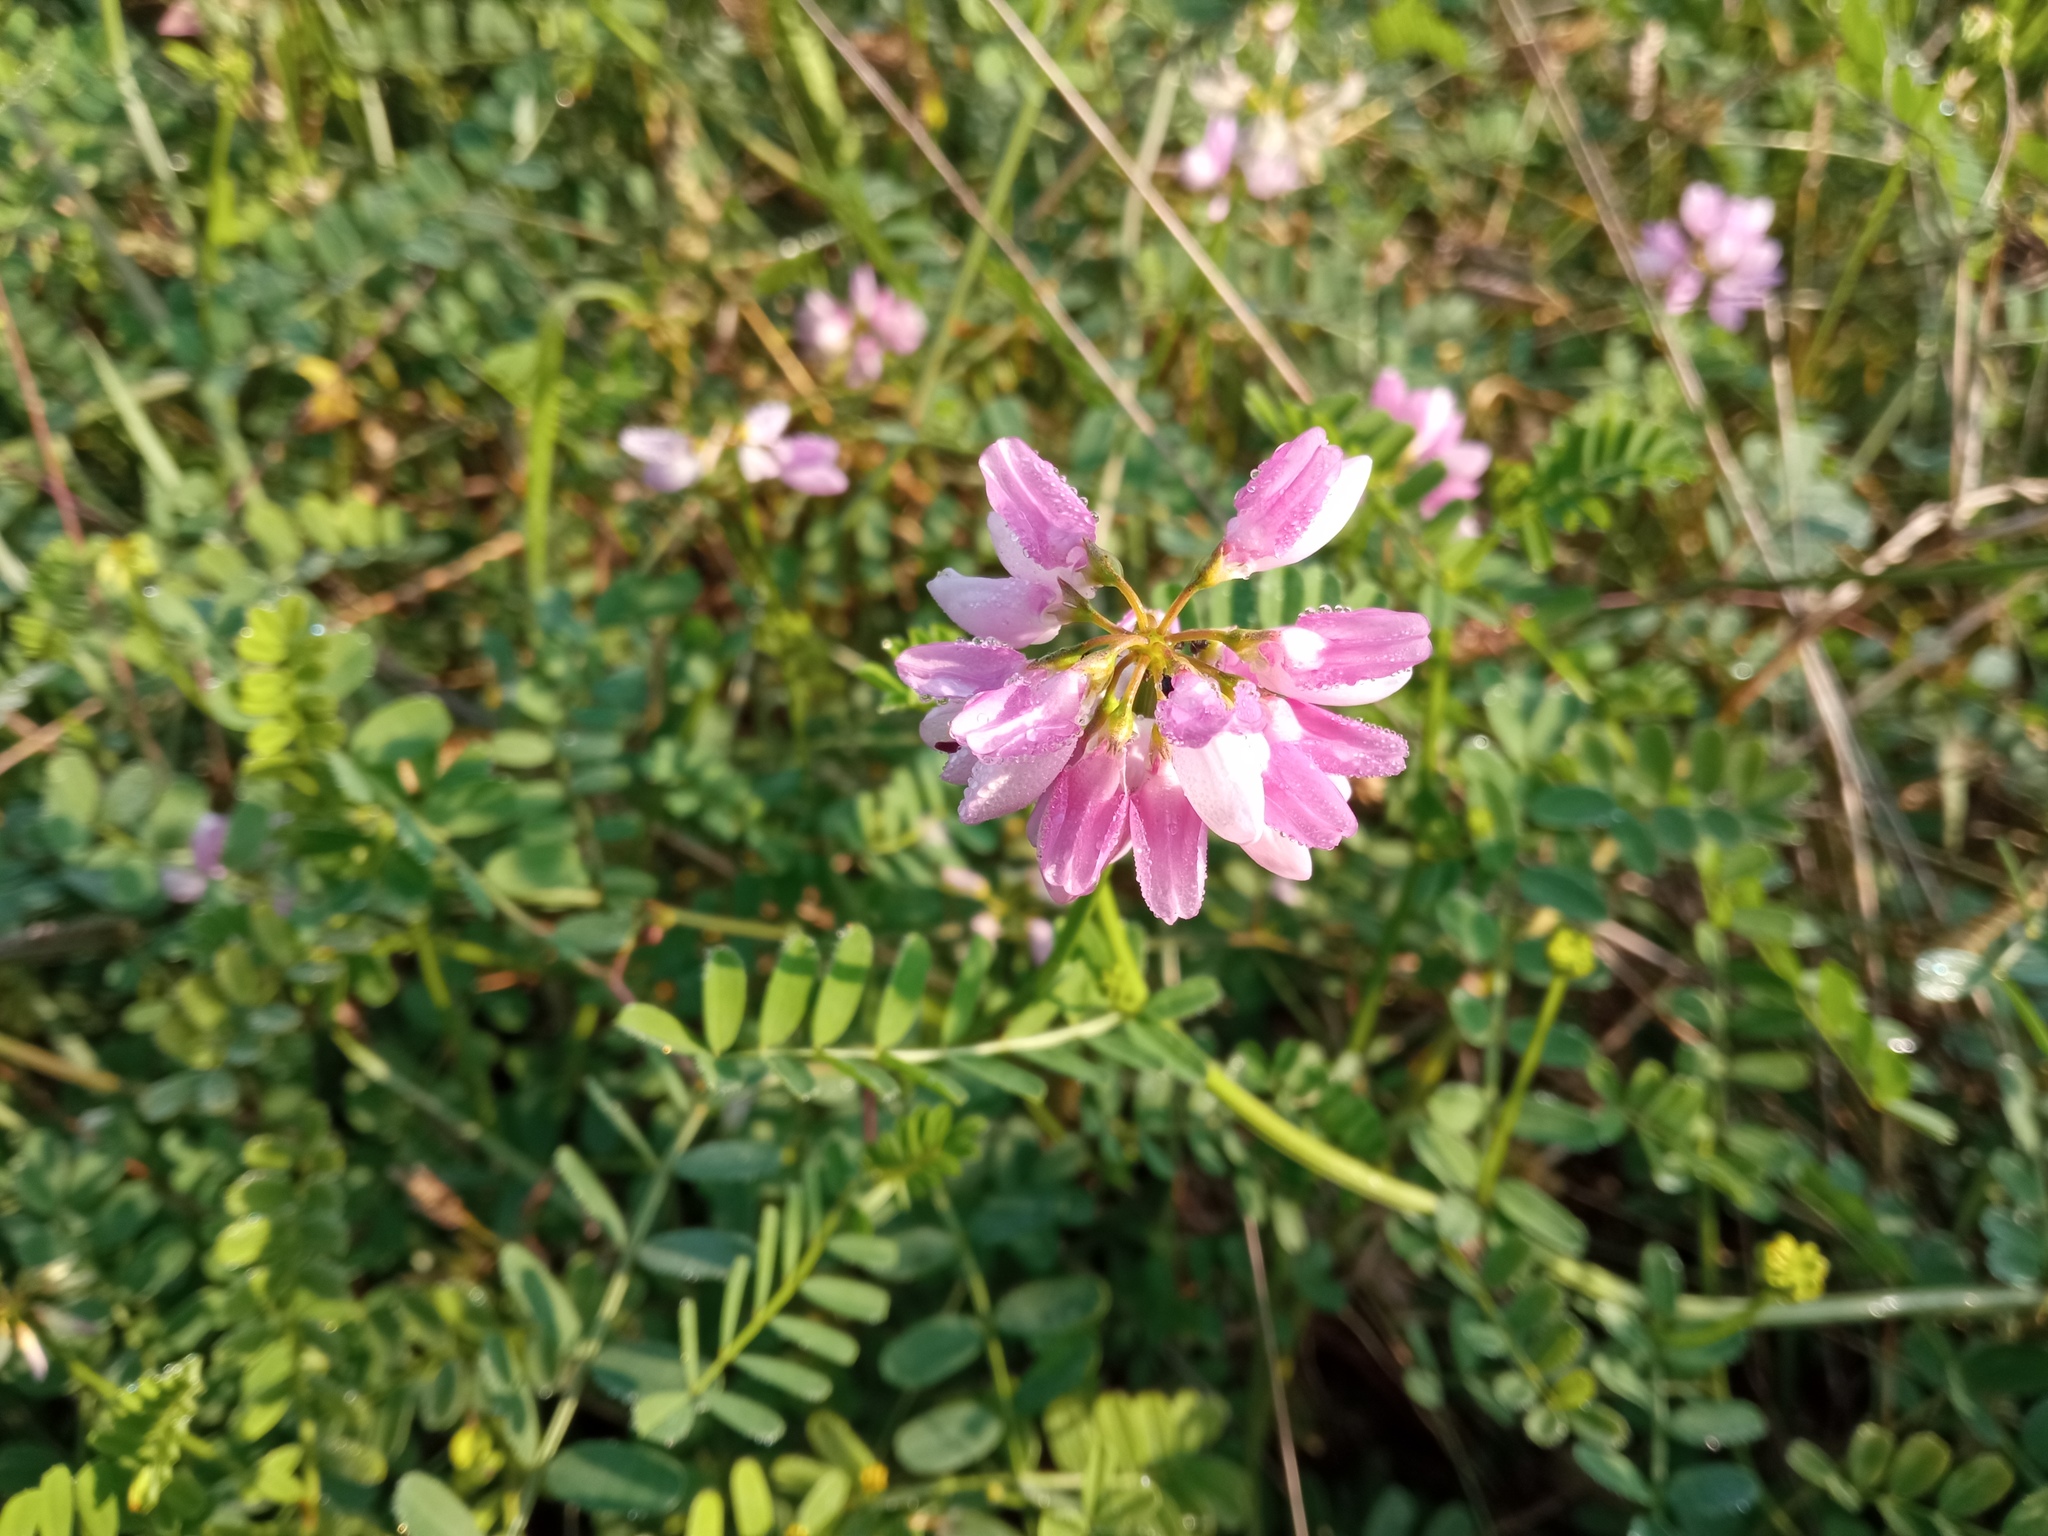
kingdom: Plantae
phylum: Tracheophyta
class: Magnoliopsida
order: Fabales
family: Fabaceae
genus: Coronilla
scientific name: Coronilla varia
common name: Crownvetch
